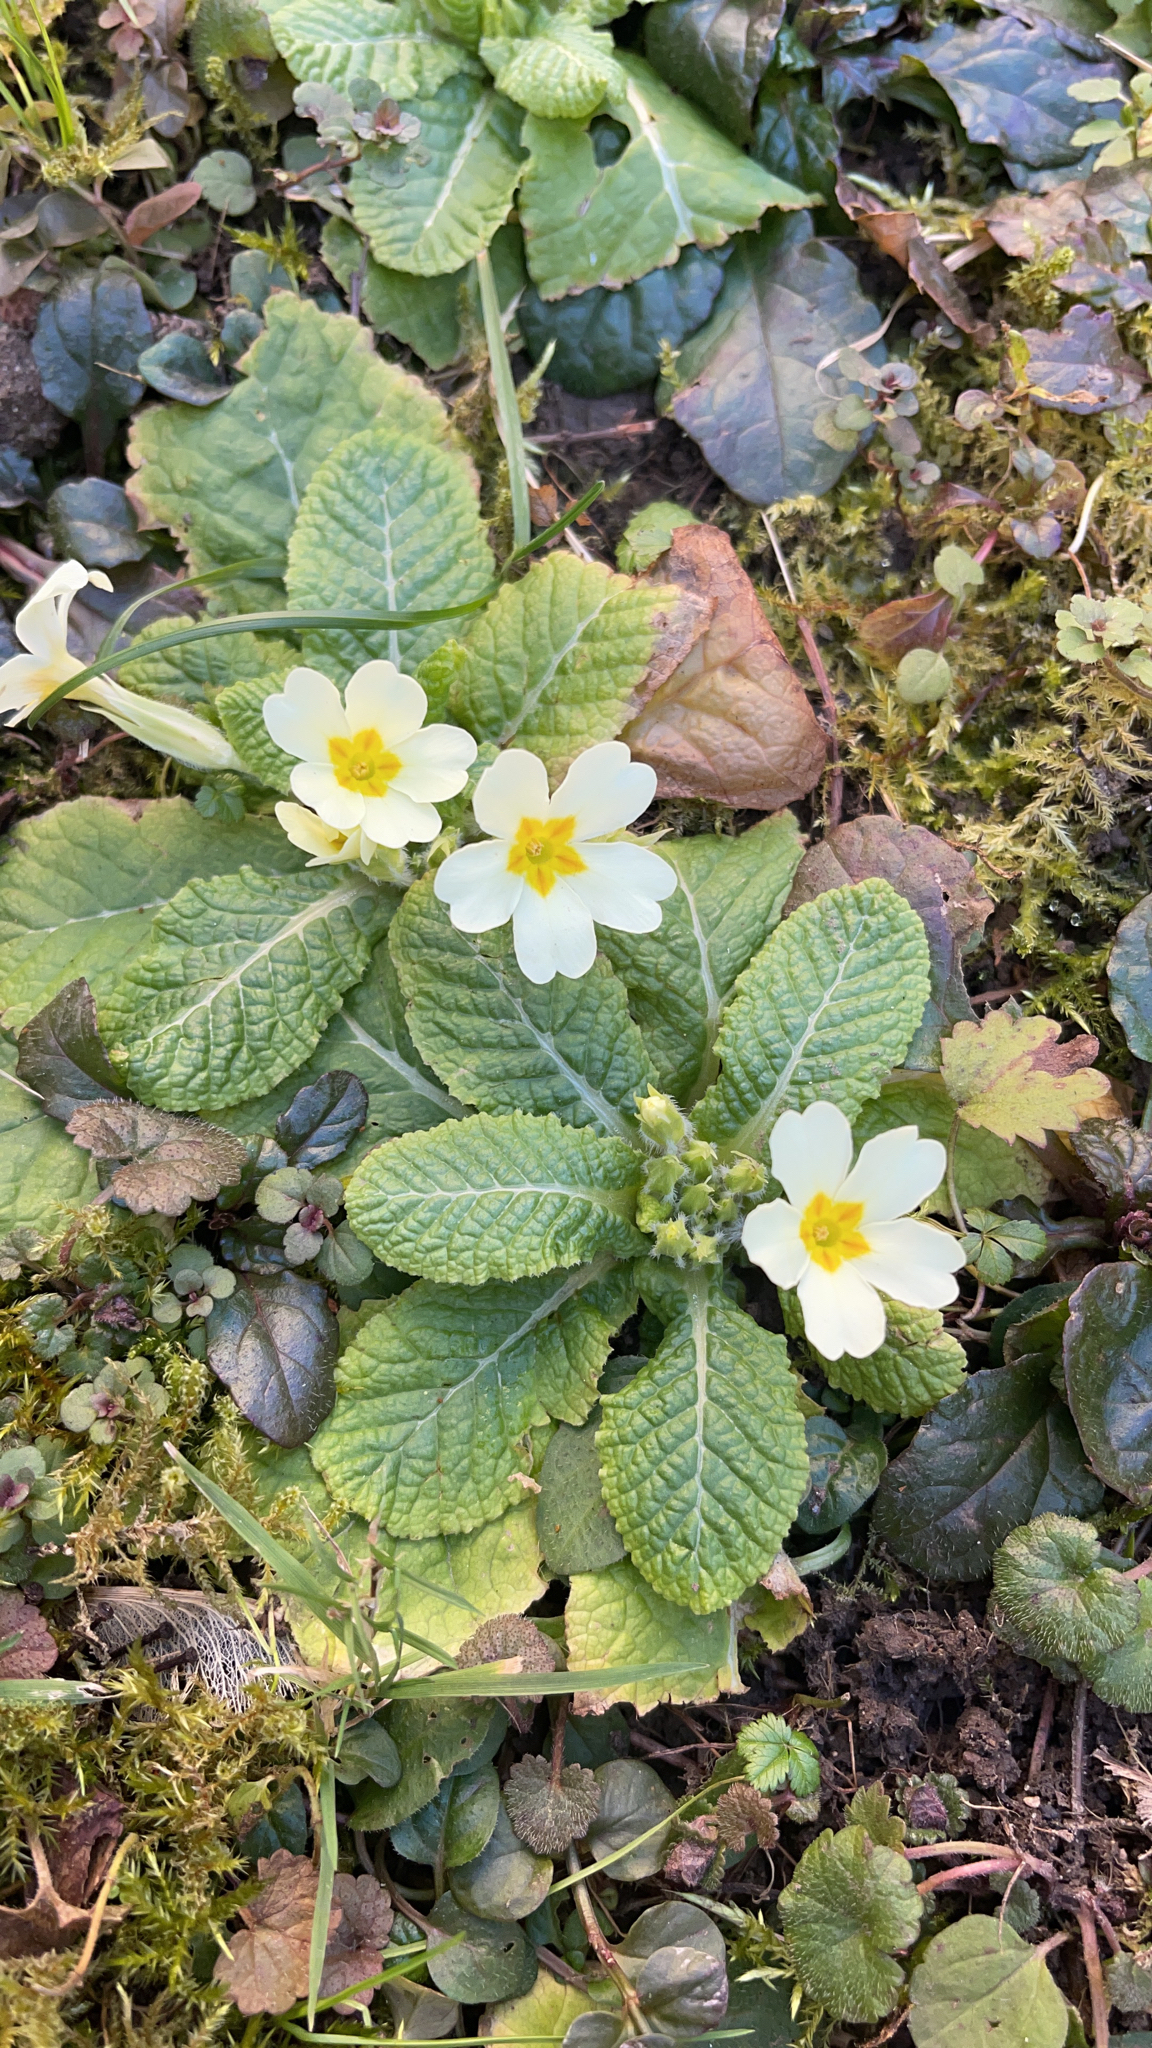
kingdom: Plantae
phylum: Tracheophyta
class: Magnoliopsida
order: Ericales
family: Primulaceae
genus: Primula
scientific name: Primula vulgaris
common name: Primrose
